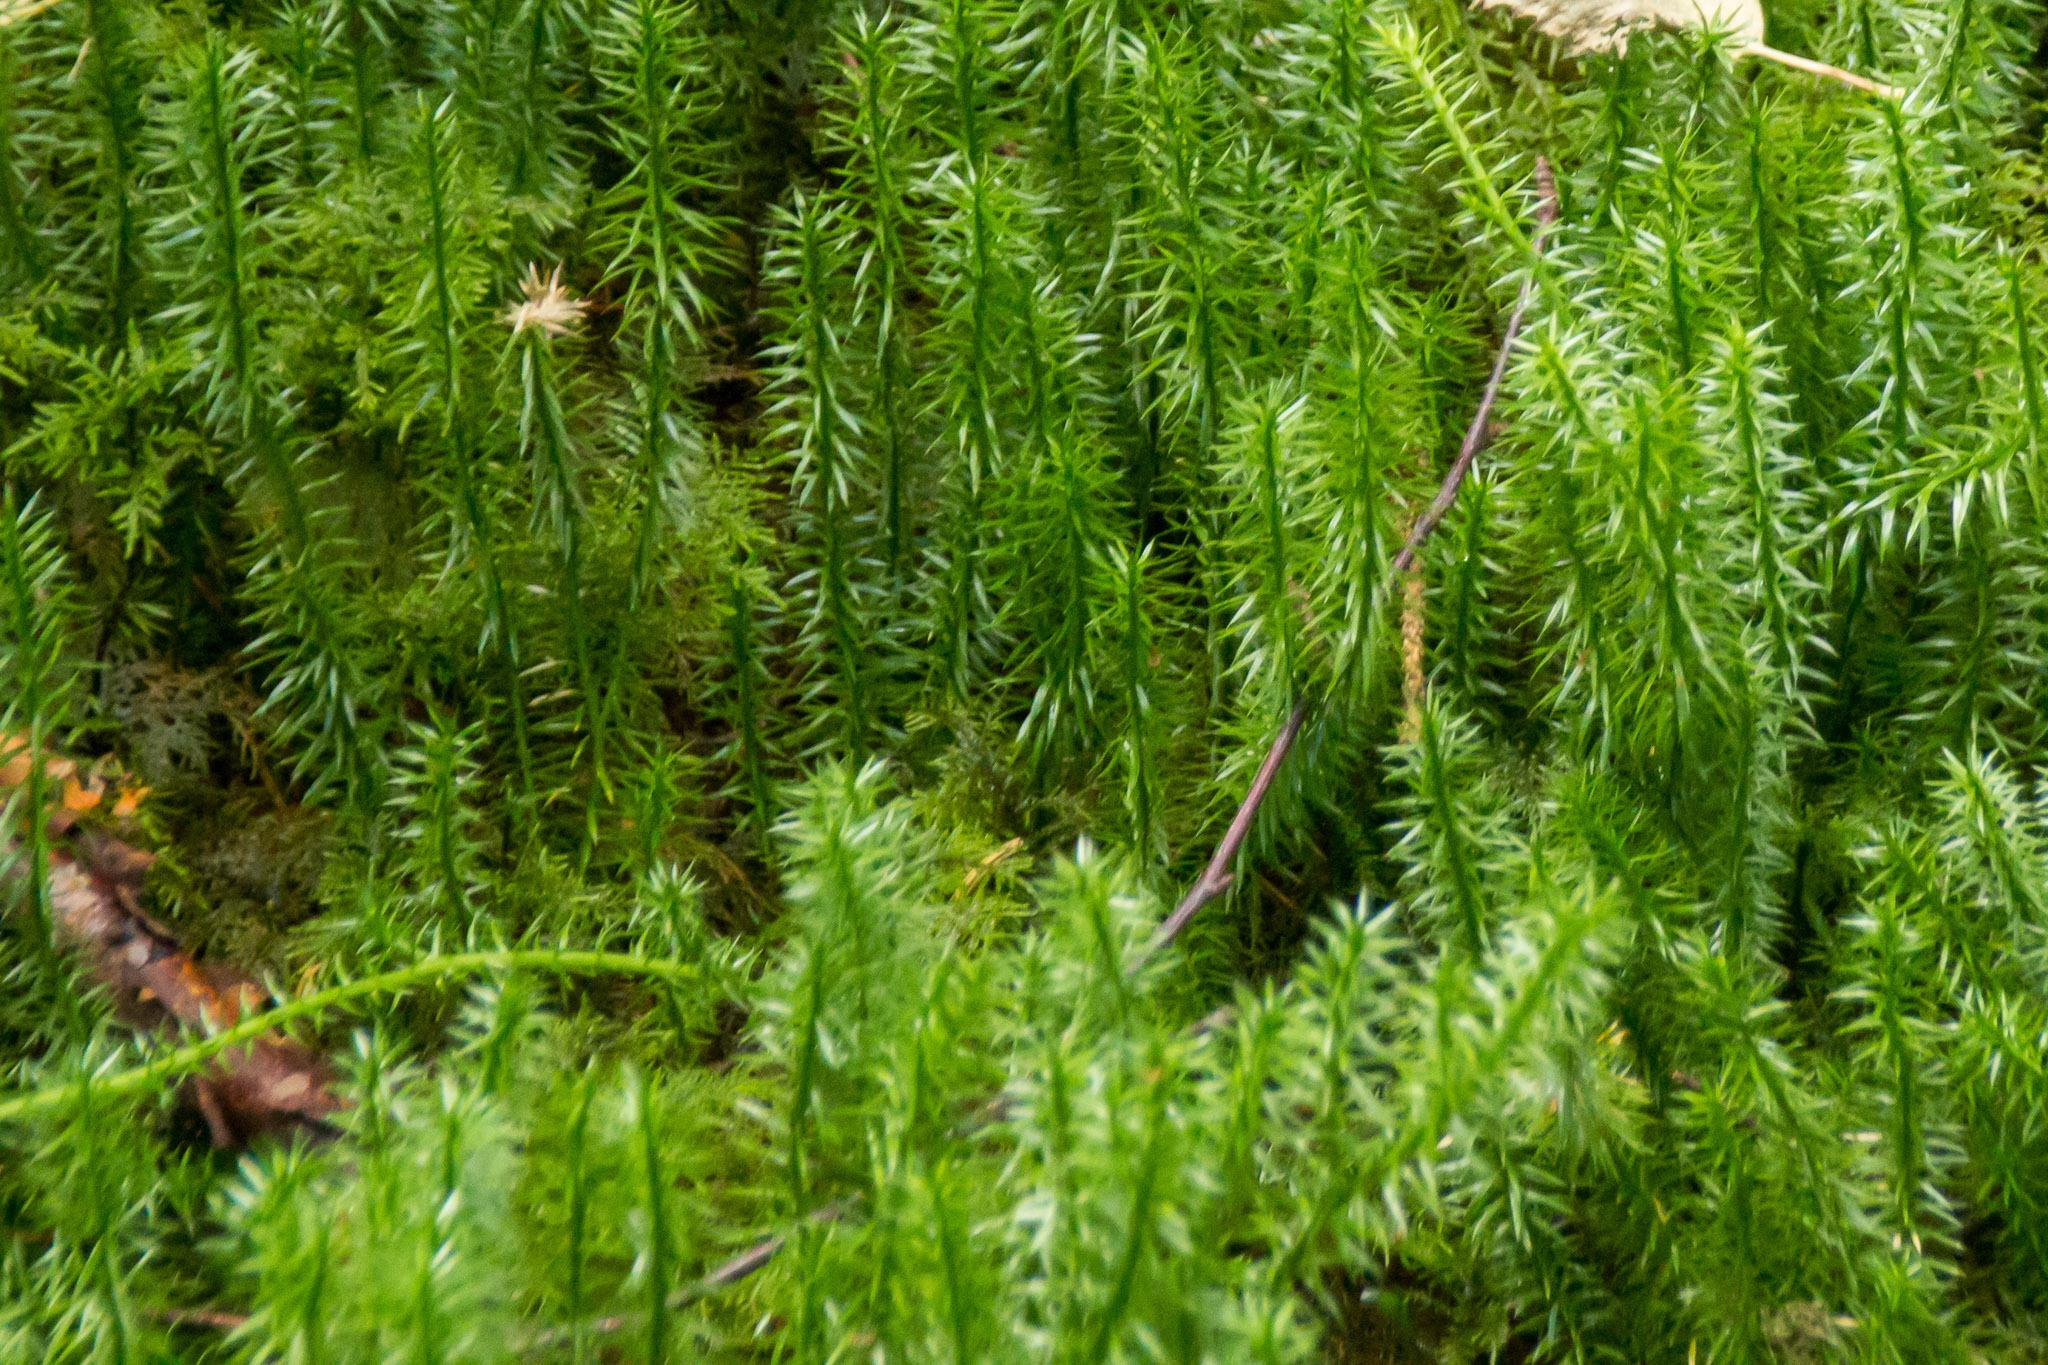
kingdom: Plantae
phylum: Tracheophyta
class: Lycopodiopsida
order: Lycopodiales
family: Lycopodiaceae
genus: Spinulum
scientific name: Spinulum annotinum
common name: Interrupted club-moss
